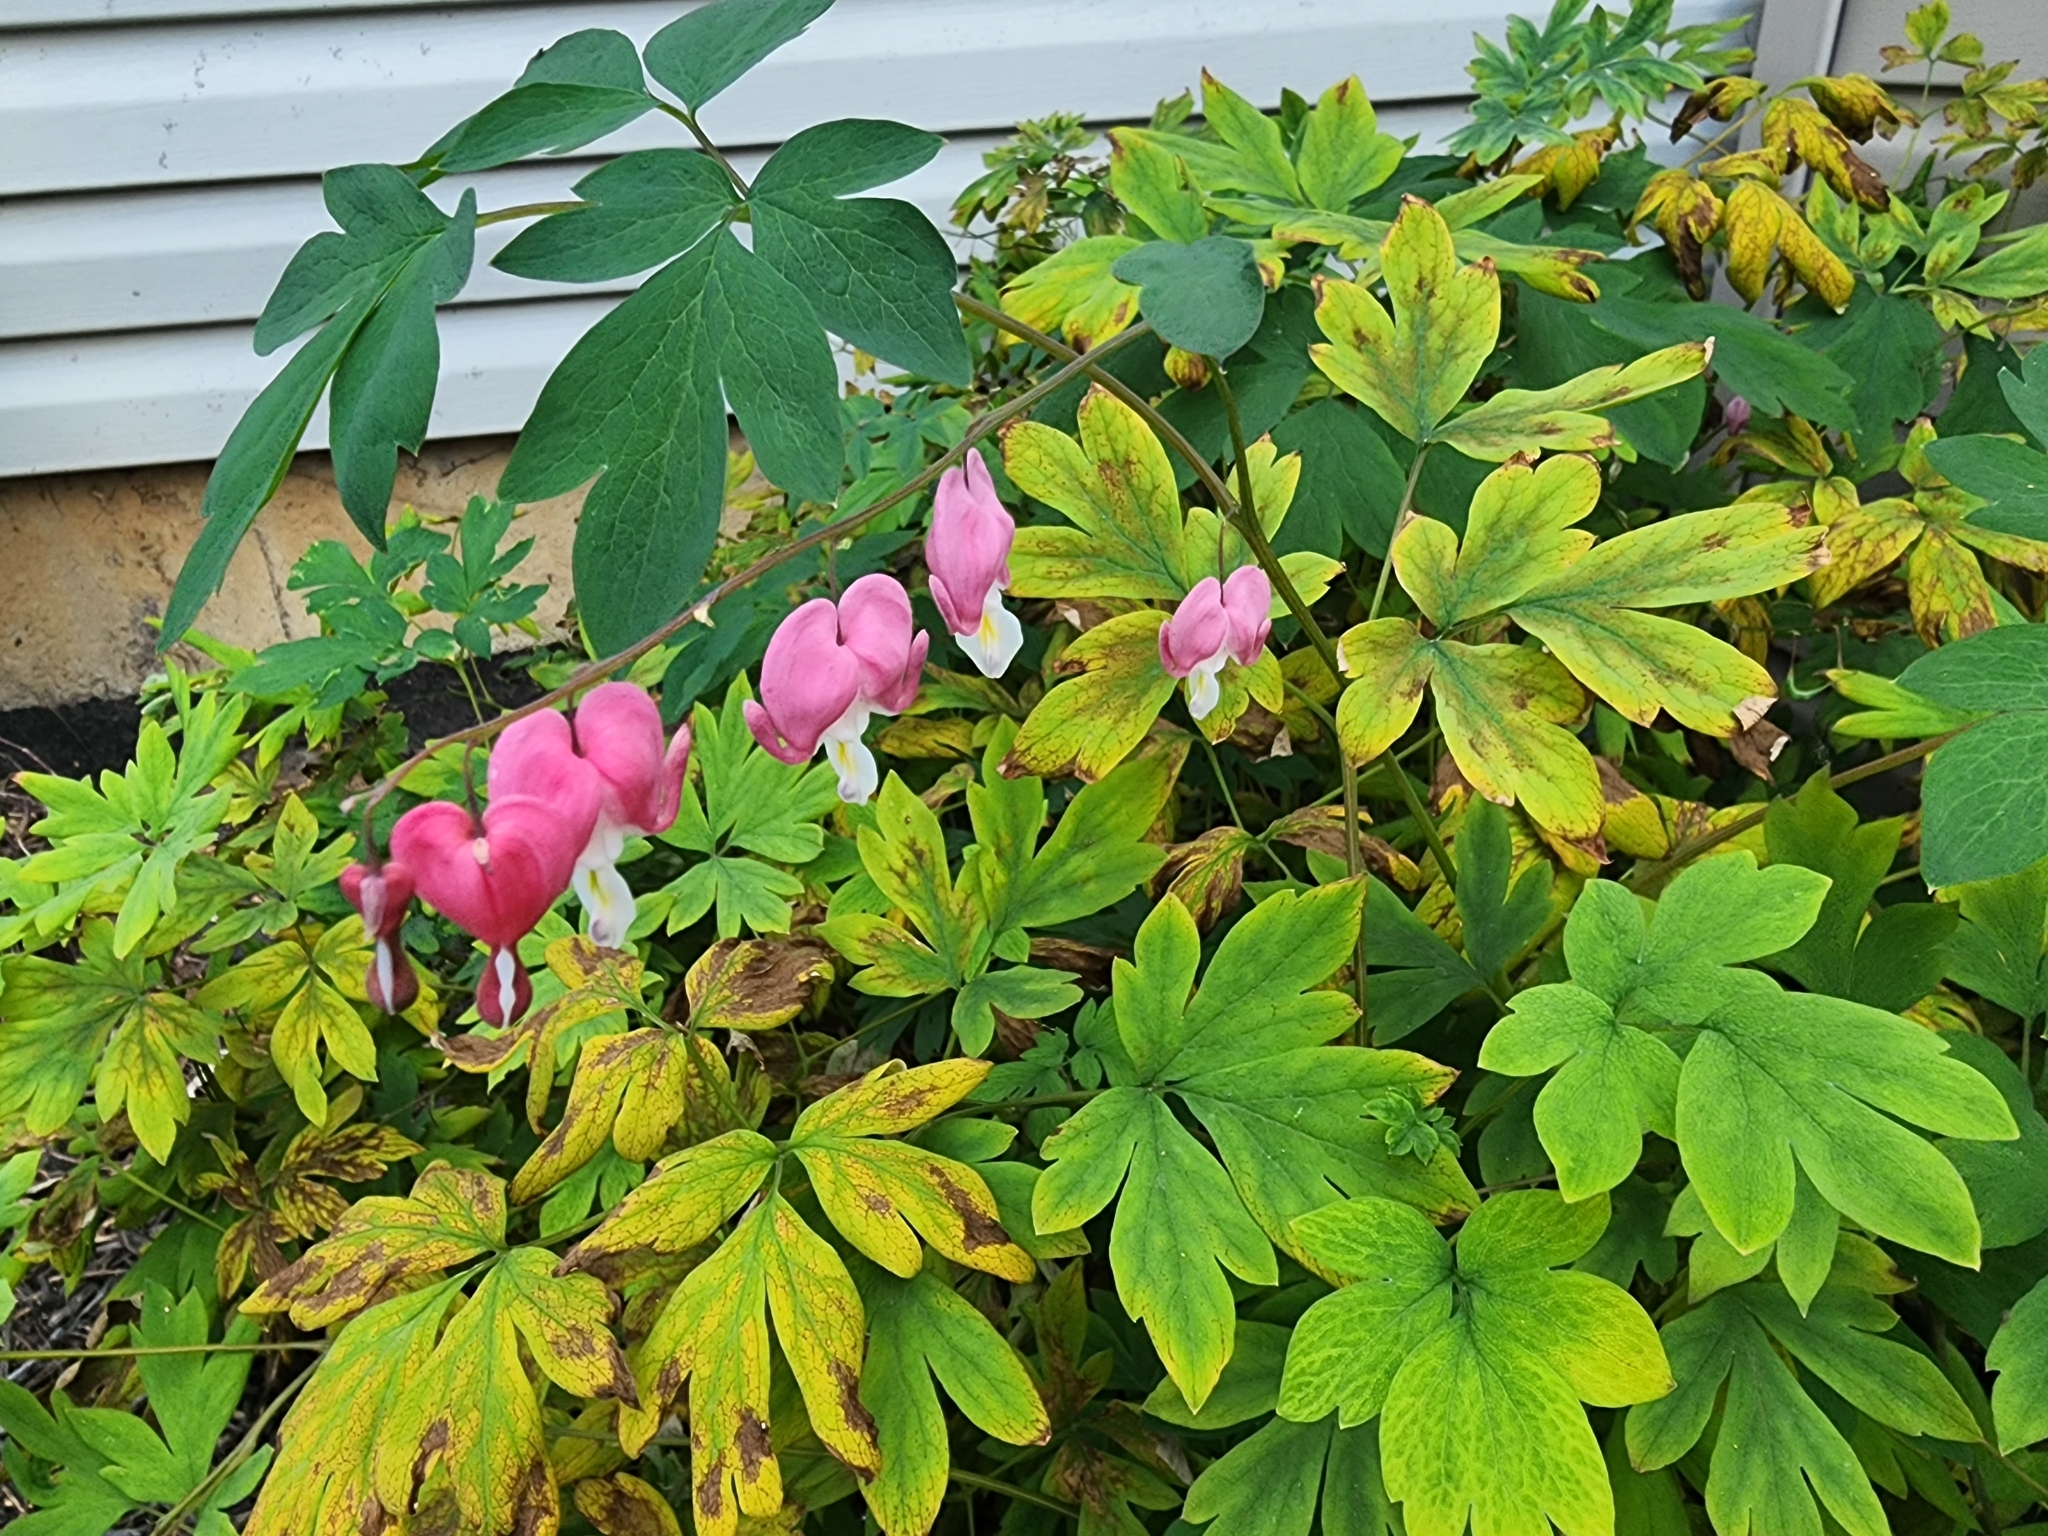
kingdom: Plantae
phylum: Tracheophyta
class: Magnoliopsida
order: Ranunculales
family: Papaveraceae
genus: Lamprocapnos
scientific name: Lamprocapnos spectabilis
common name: Asian bleeding-heart
